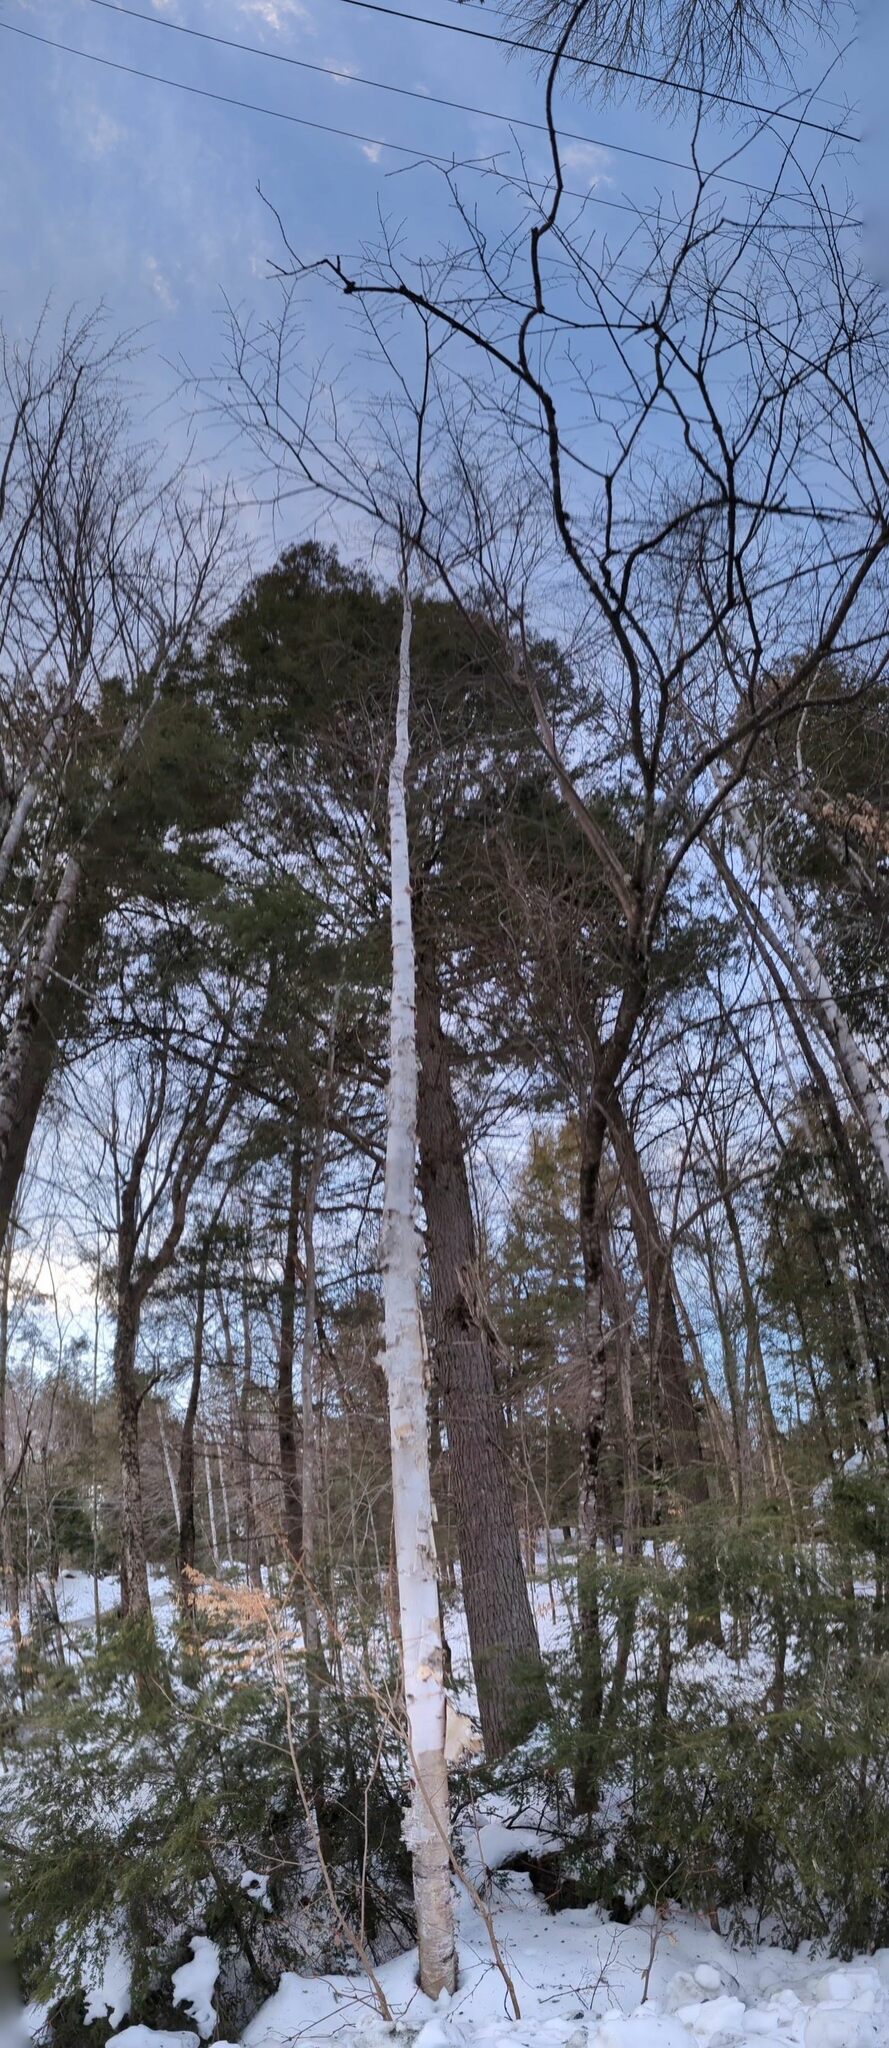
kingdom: Plantae
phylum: Tracheophyta
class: Magnoliopsida
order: Fagales
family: Betulaceae
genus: Betula
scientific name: Betula papyrifera
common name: Paper birch
